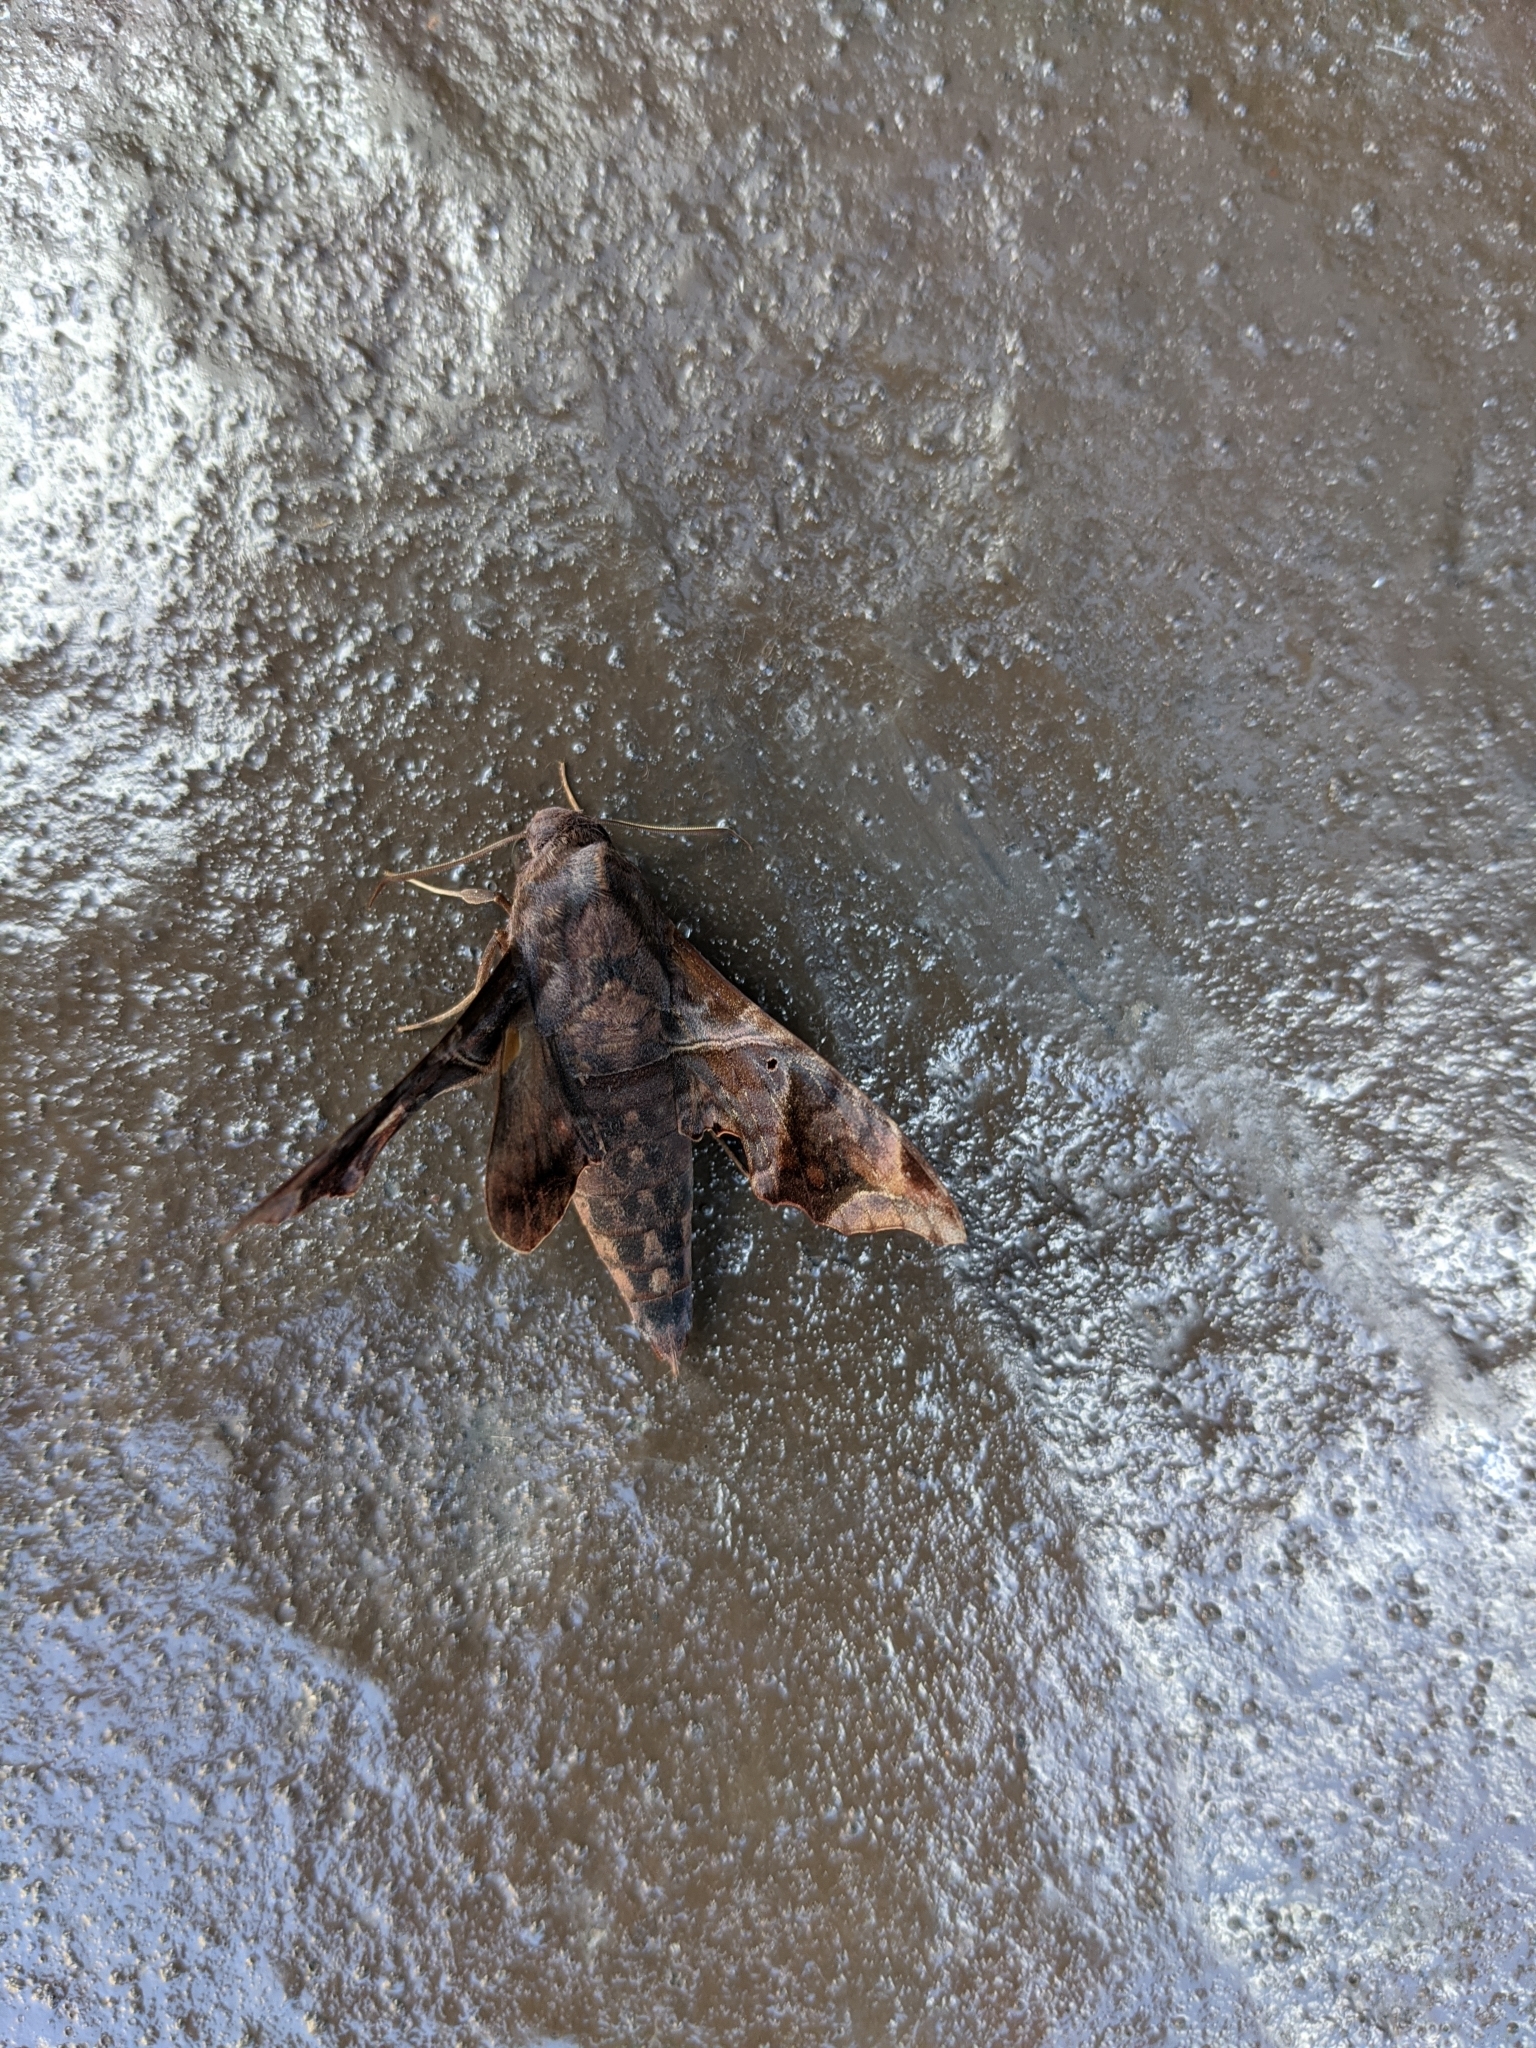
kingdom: Animalia
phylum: Arthropoda
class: Insecta
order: Lepidoptera
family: Sphingidae
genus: Enyo
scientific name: Enyo lugubris
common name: Mournful sphinx
